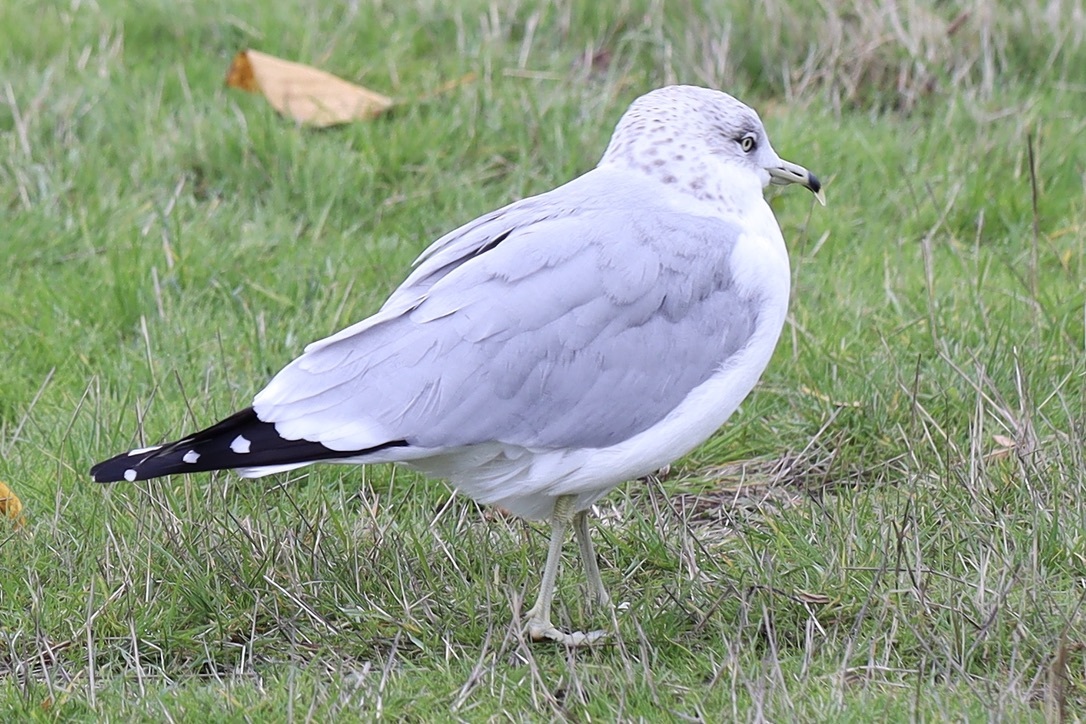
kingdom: Animalia
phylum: Chordata
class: Aves
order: Charadriiformes
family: Laridae
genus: Larus
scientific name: Larus delawarensis
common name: Ring-billed gull
